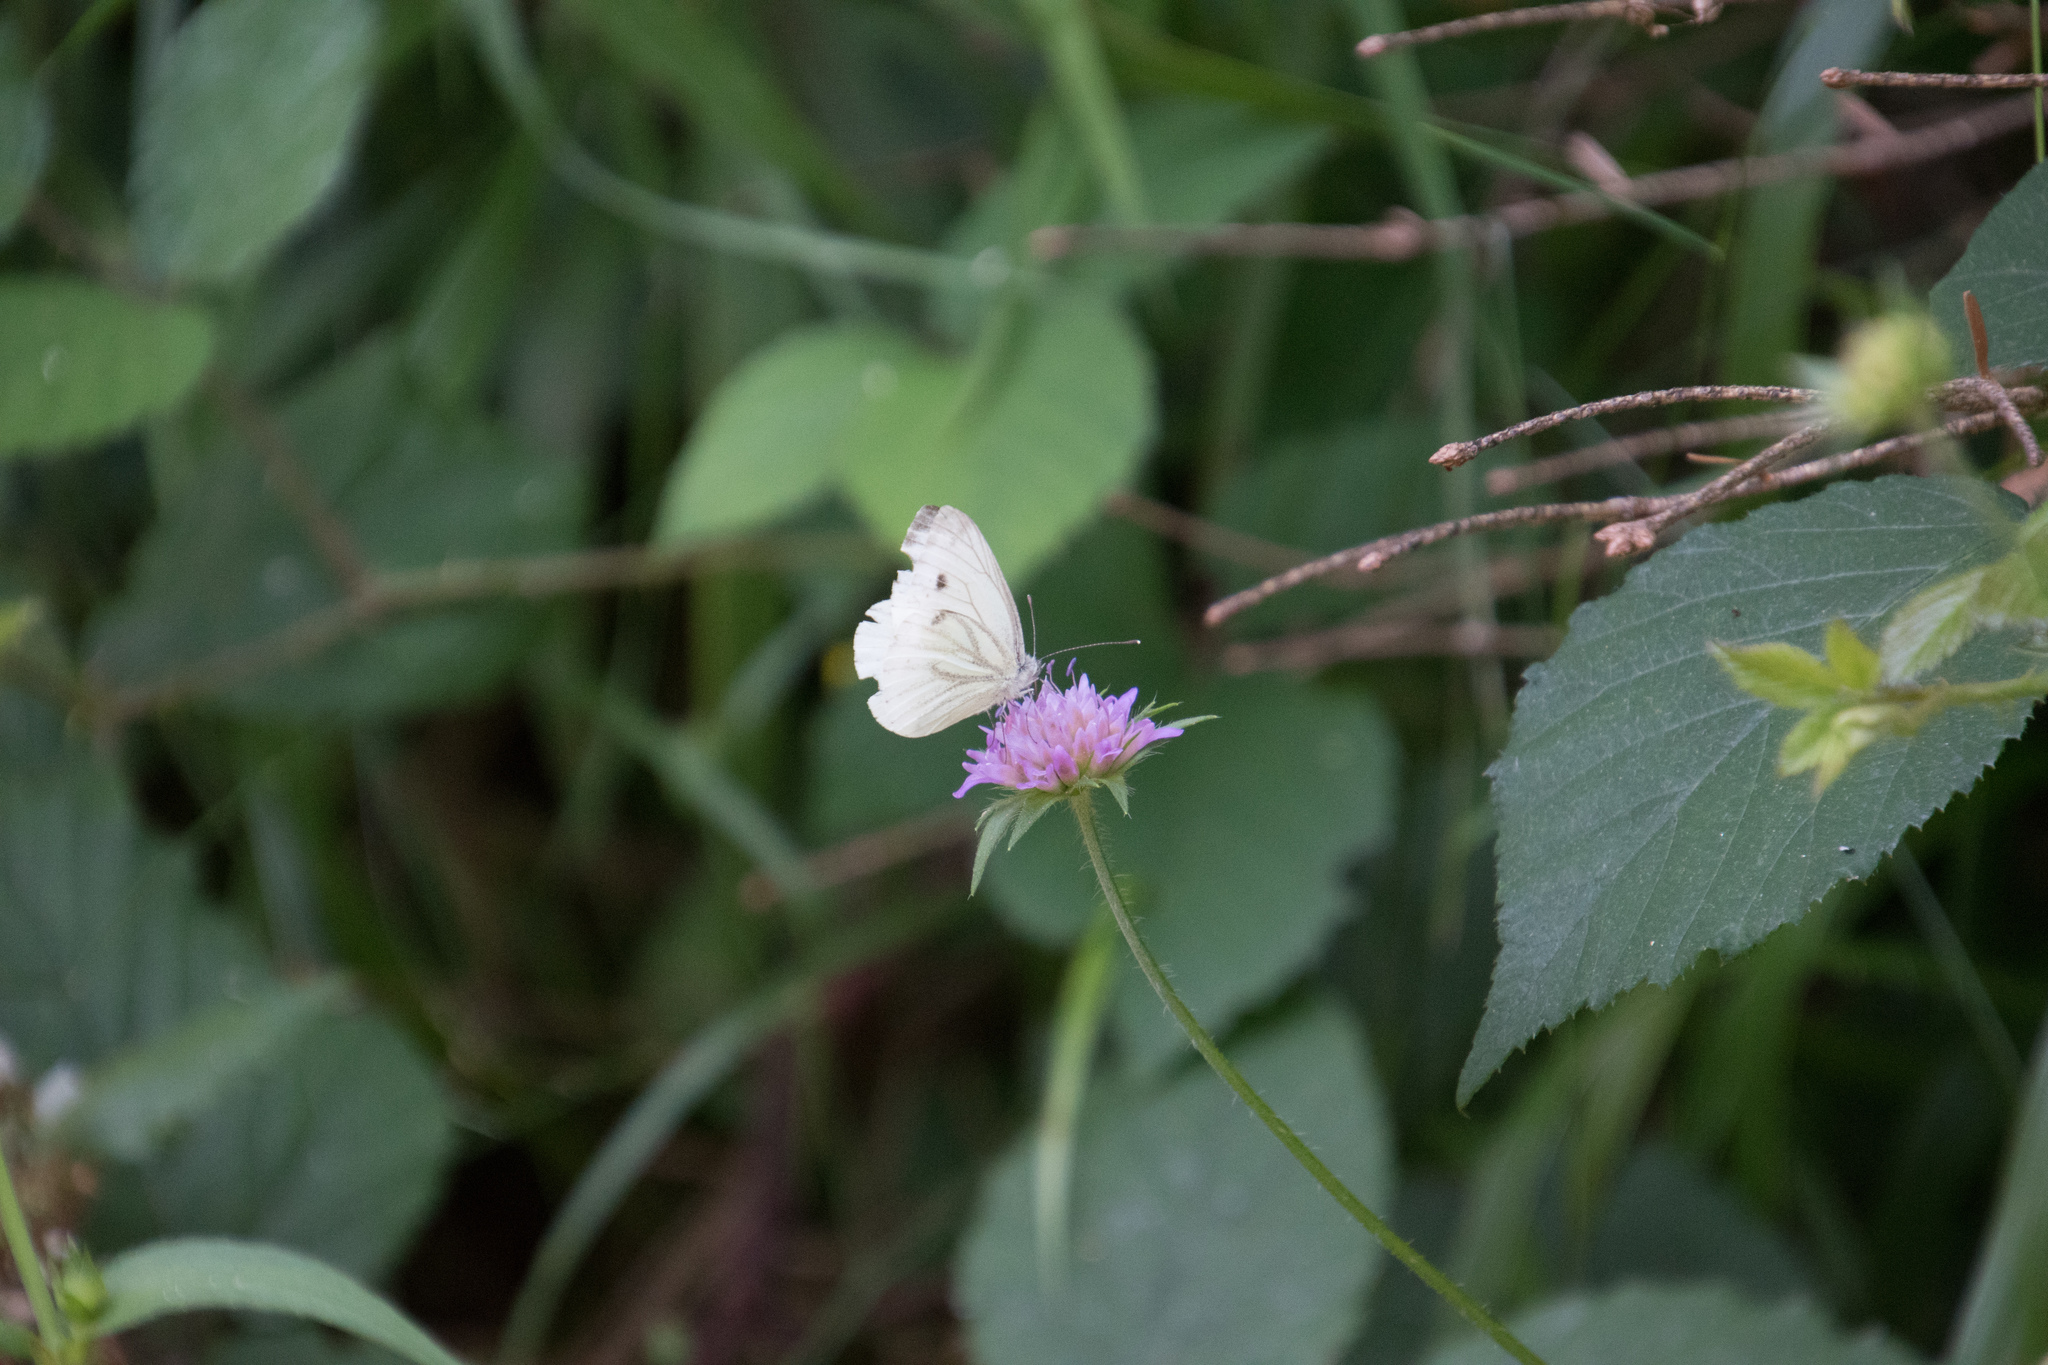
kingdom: Animalia
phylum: Arthropoda
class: Insecta
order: Lepidoptera
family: Pieridae
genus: Pieris
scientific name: Pieris napi
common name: Green-veined white
